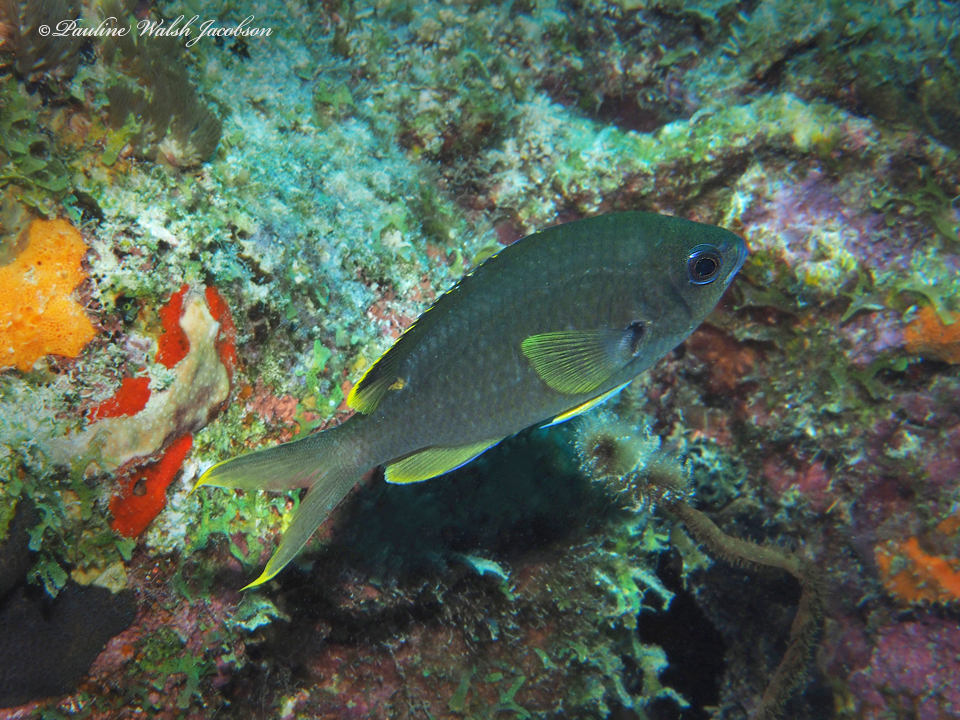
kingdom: Animalia
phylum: Chordata
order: Perciformes
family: Pomacentridae
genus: Chromis
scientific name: Chromis multilineata
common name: Brown chromis
